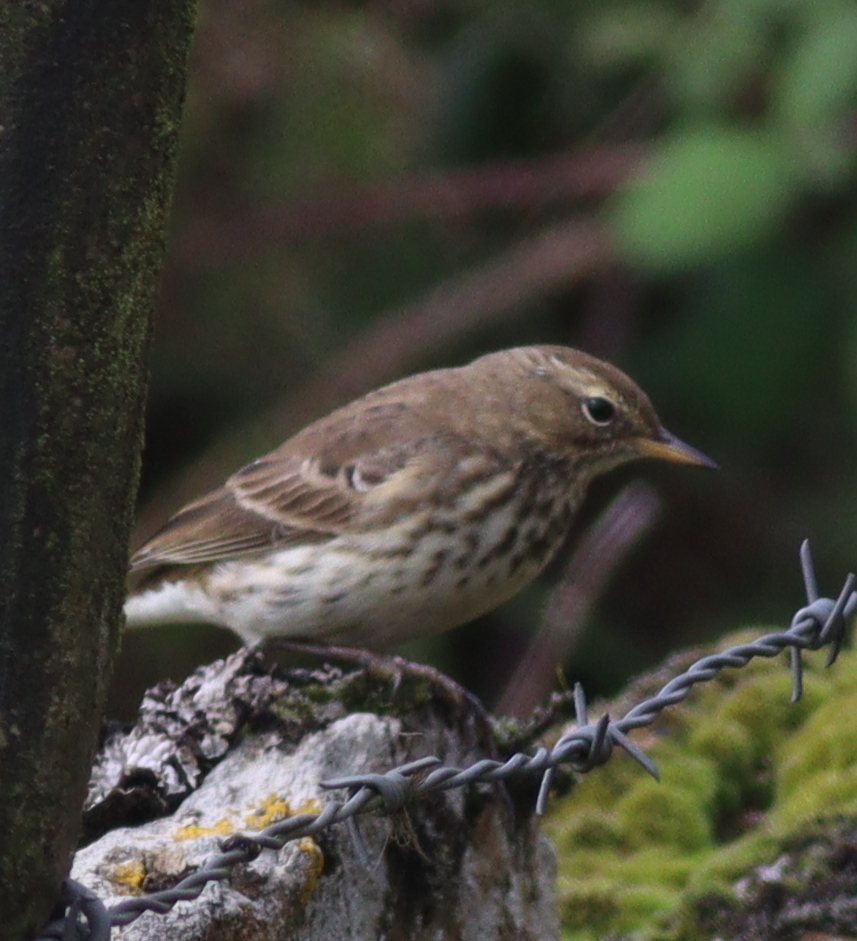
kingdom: Animalia
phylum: Chordata
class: Aves
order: Passeriformes
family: Motacillidae
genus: Anthus
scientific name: Anthus spinoletta
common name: Water pipit
